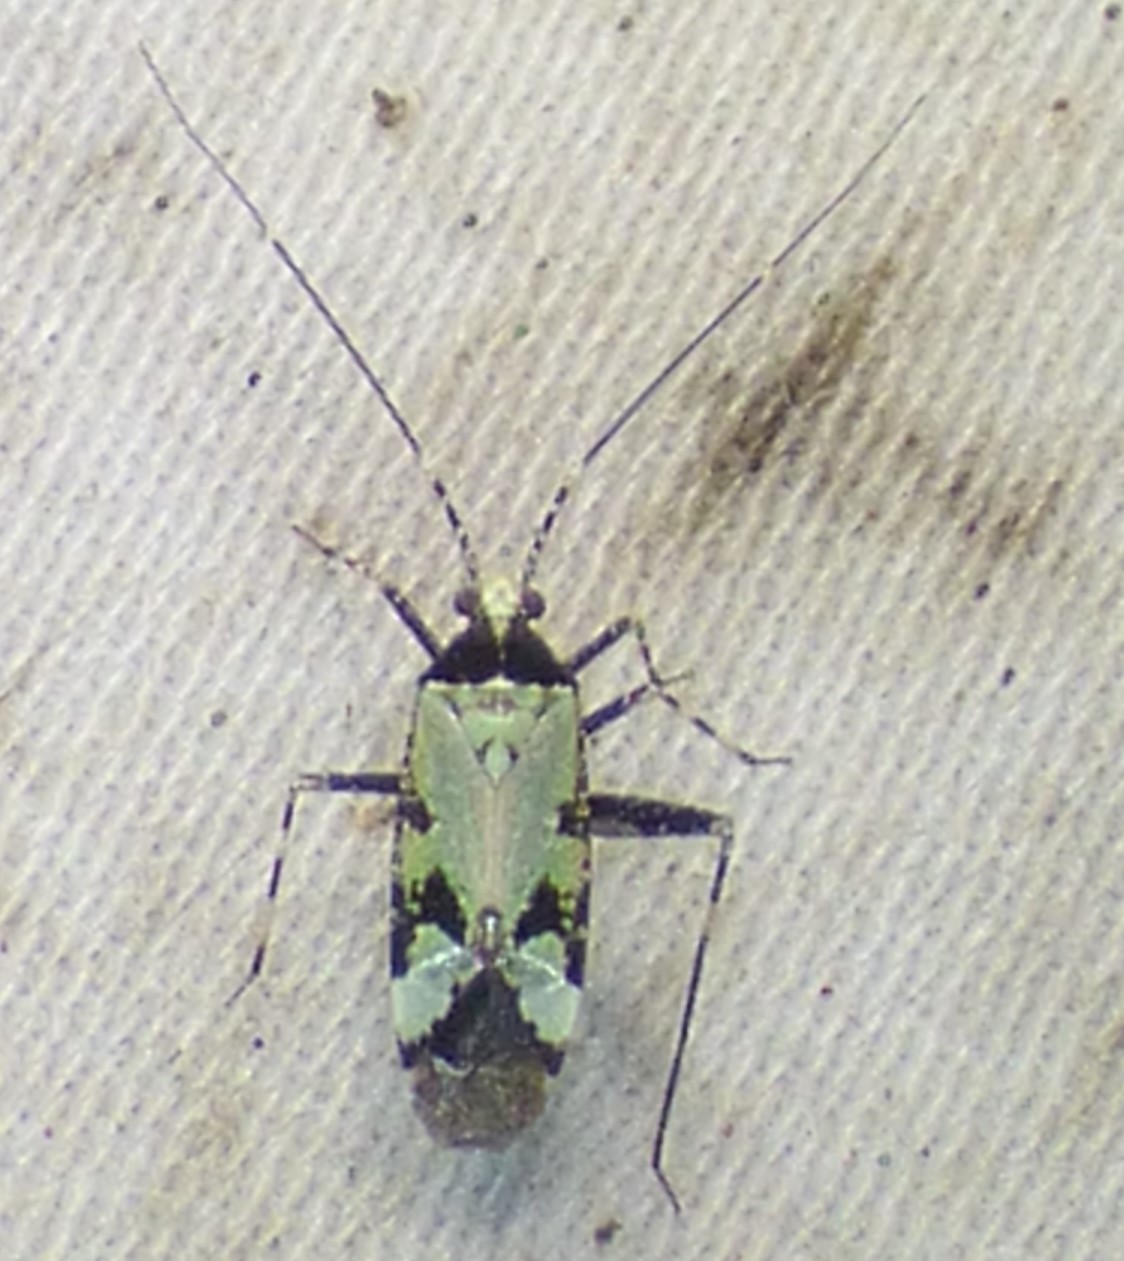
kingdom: Animalia
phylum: Arthropoda
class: Insecta
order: Hemiptera
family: Miridae
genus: Phytocoris
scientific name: Phytocoris nigricollis
